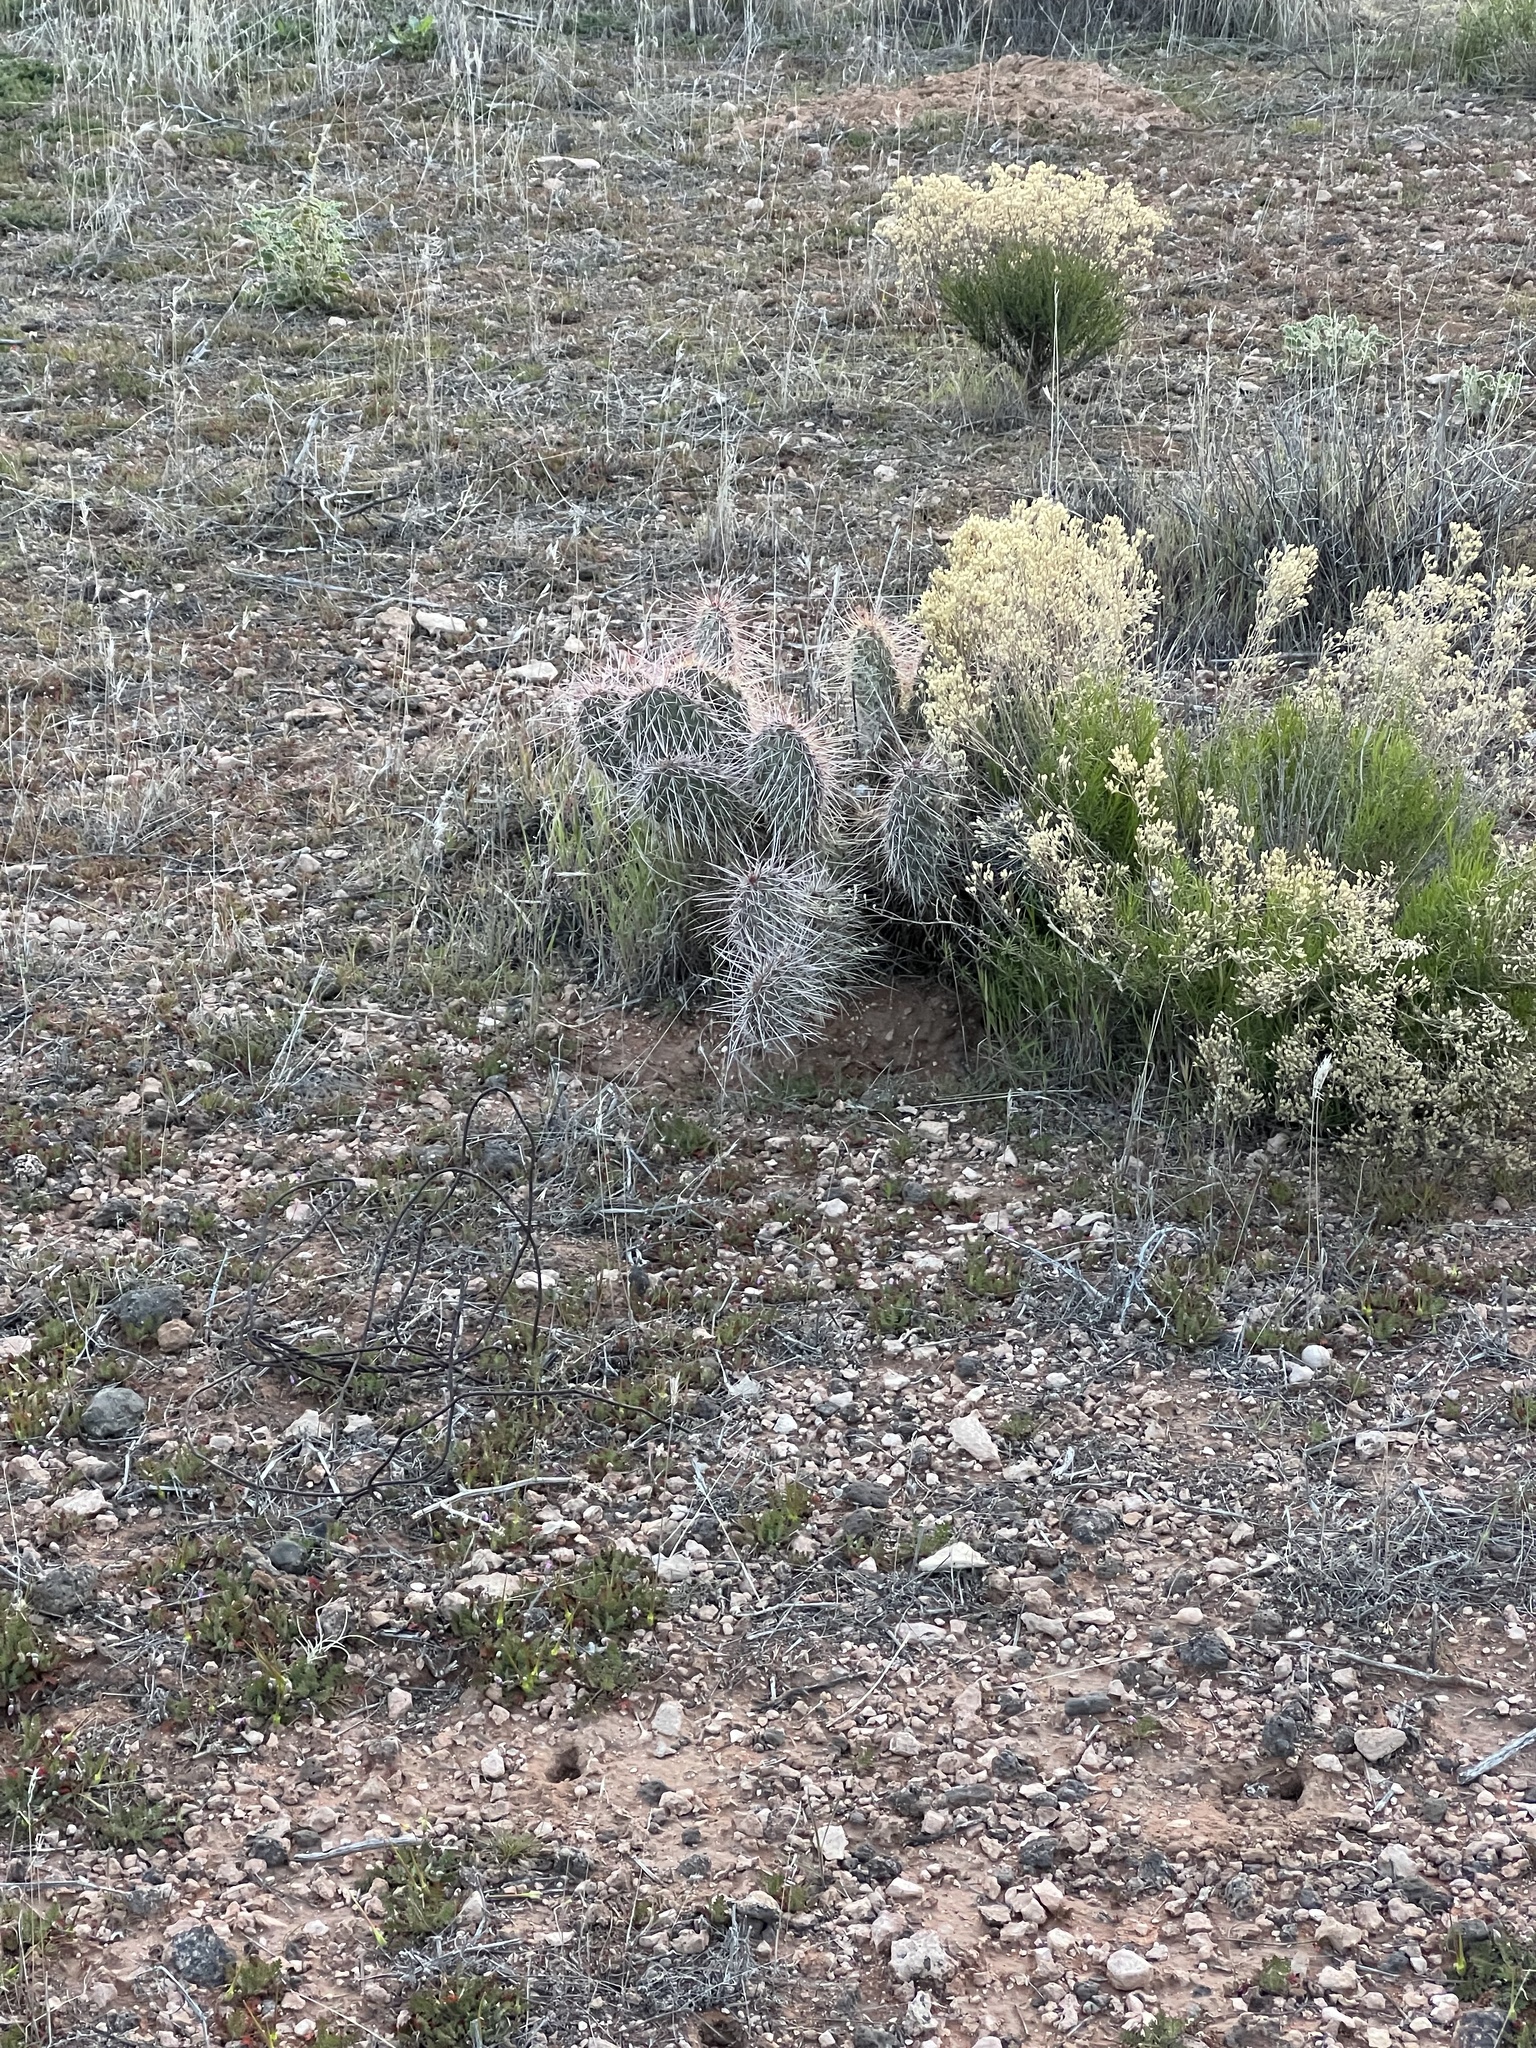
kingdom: Plantae
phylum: Tracheophyta
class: Magnoliopsida
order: Caryophyllales
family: Cactaceae
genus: Opuntia
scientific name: Opuntia polyacantha
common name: Plains prickly-pear
